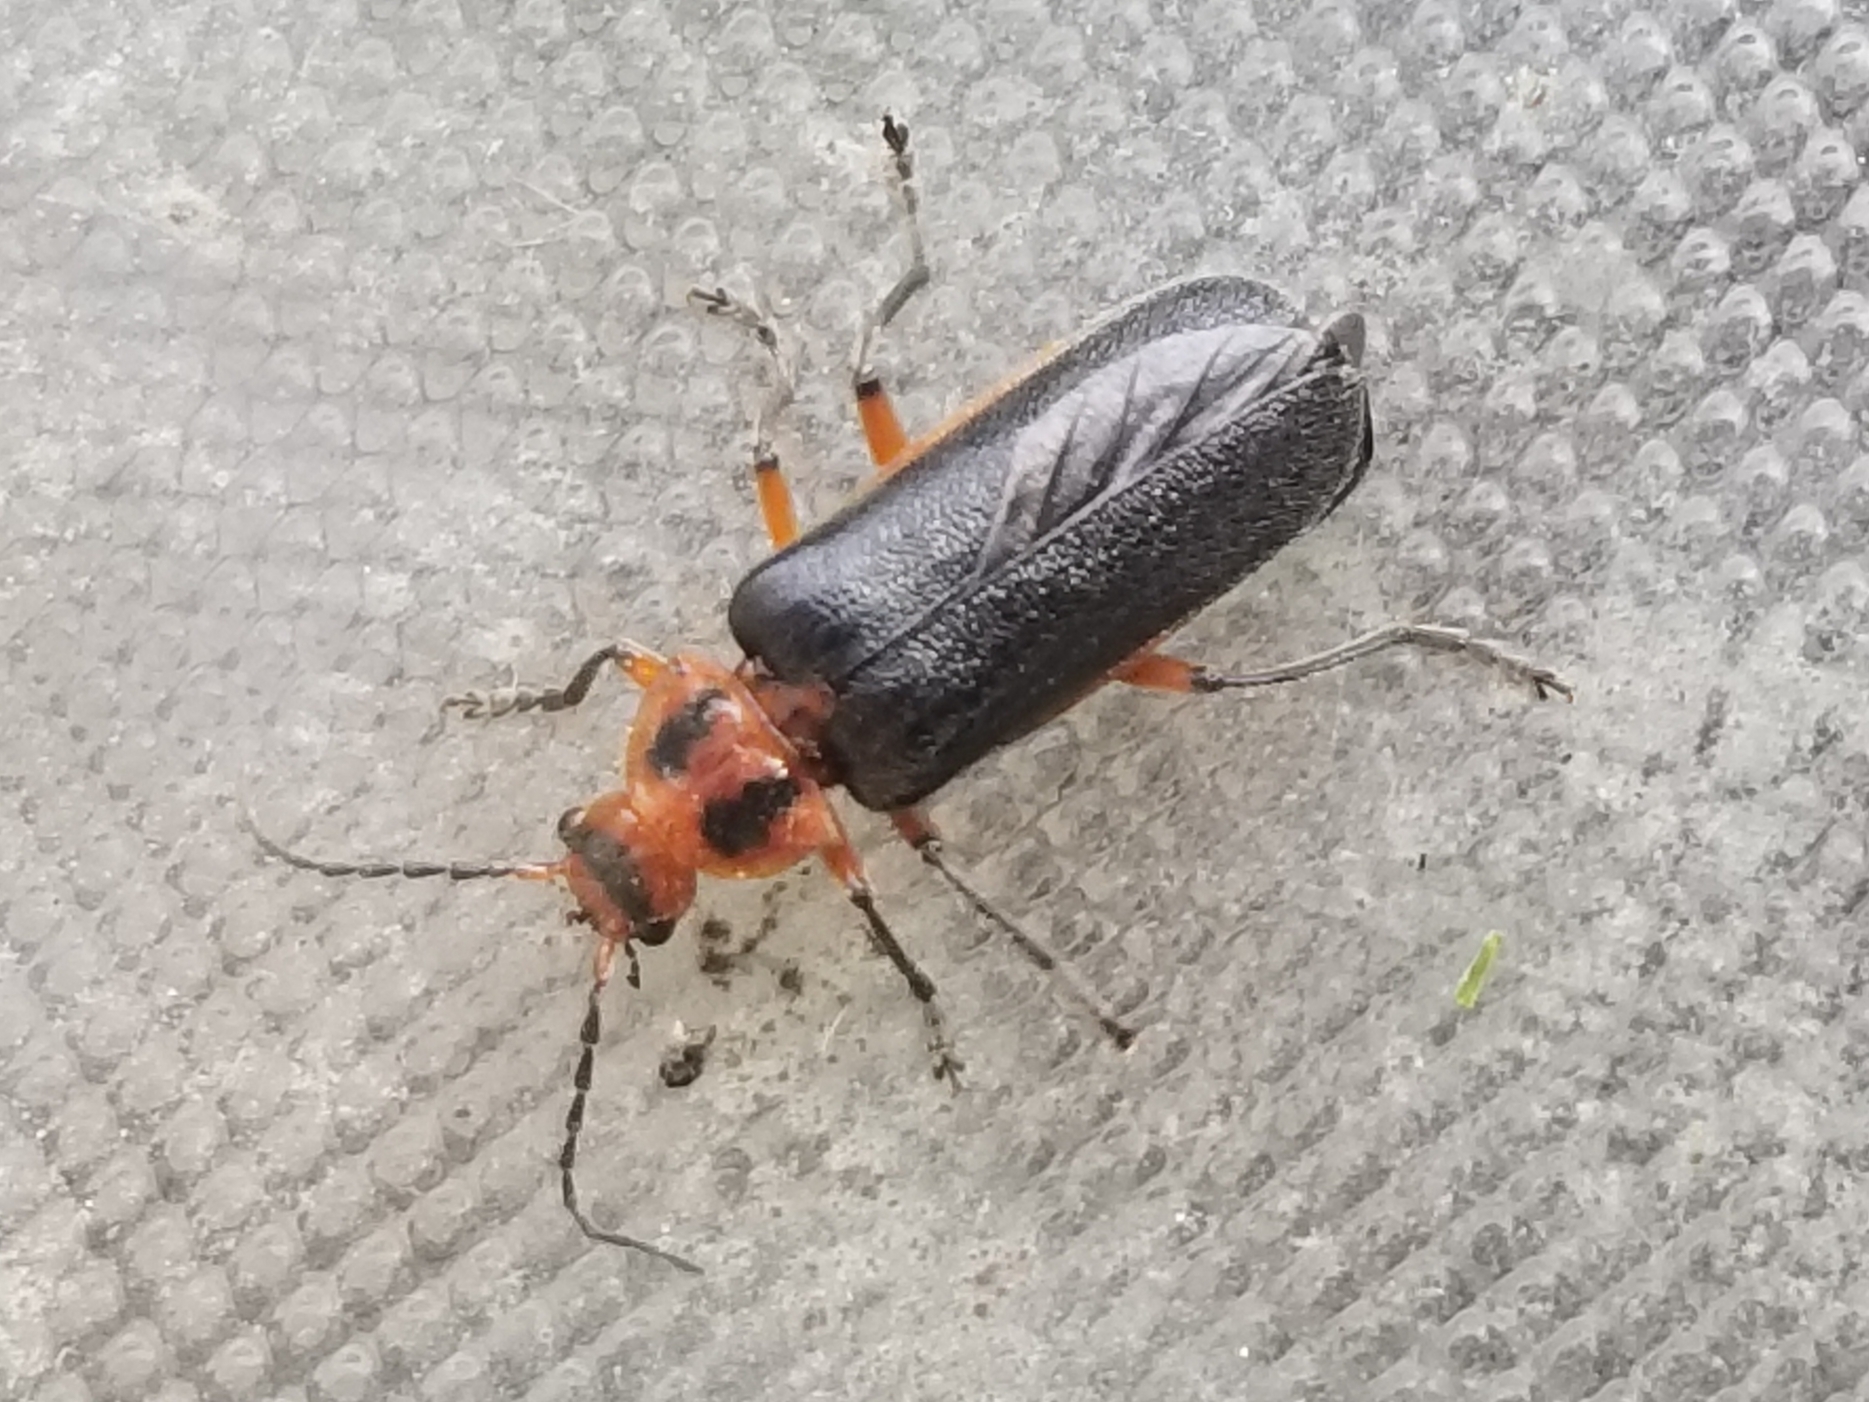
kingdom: Animalia
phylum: Arthropoda
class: Insecta
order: Coleoptera
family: Cantharidae
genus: Atalantycha
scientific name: Atalantycha bilineata
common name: Two-lined leatherwing
